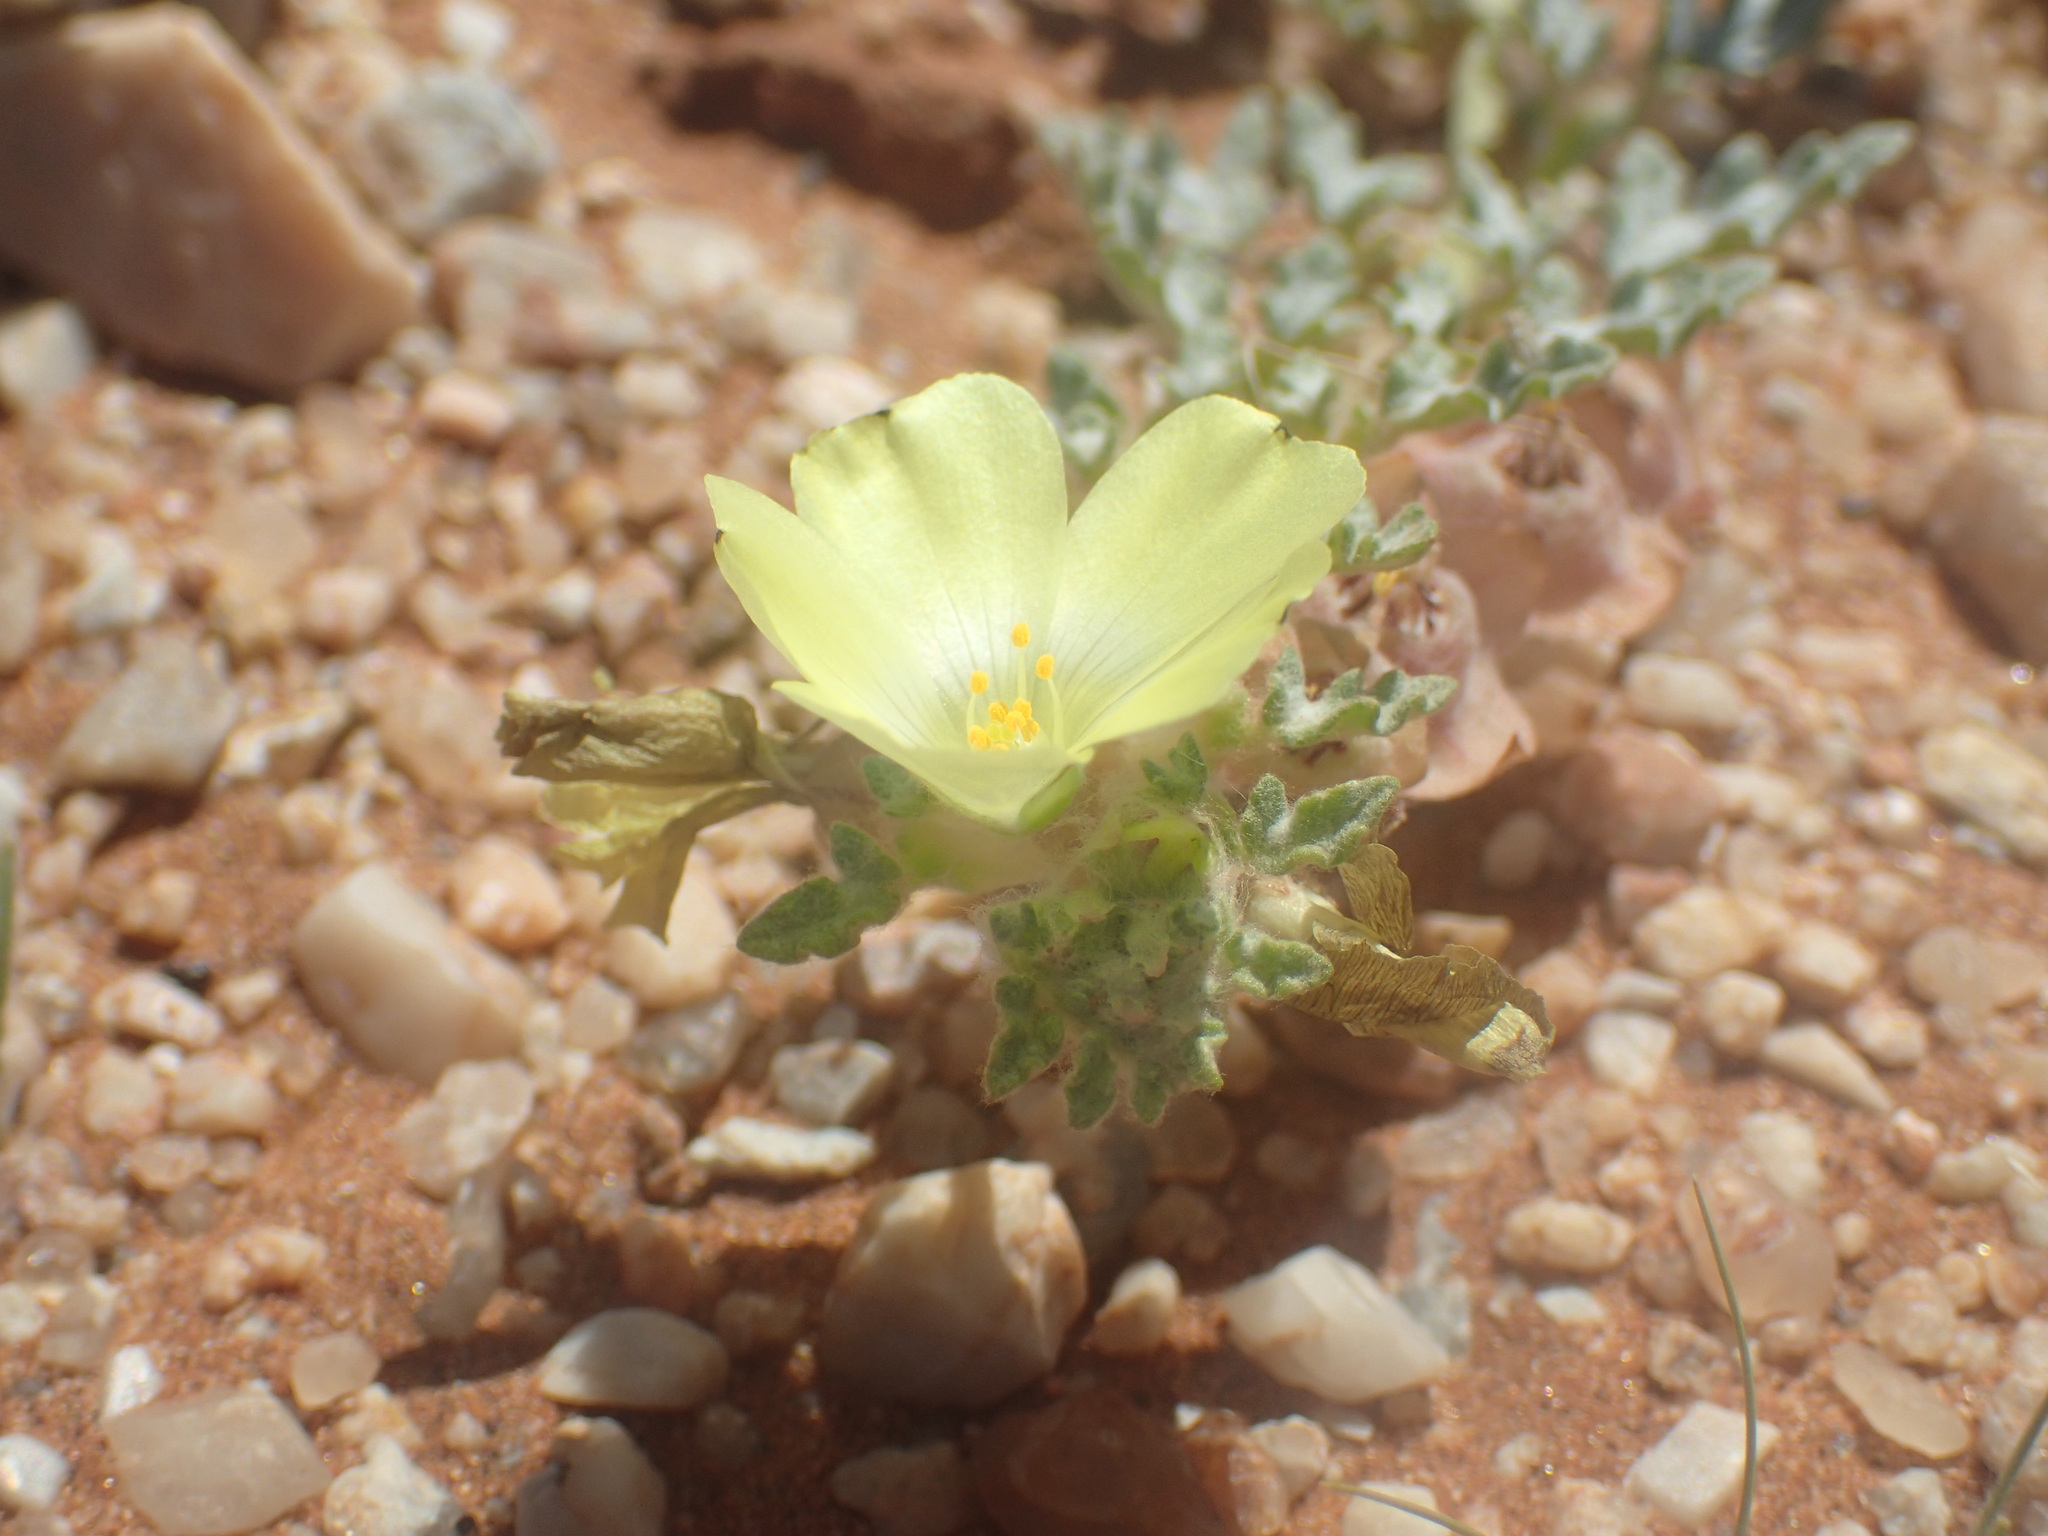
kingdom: Plantae
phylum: Tracheophyta
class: Magnoliopsida
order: Malvales
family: Neuradaceae
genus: Grielum
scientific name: Grielum sinuatum
